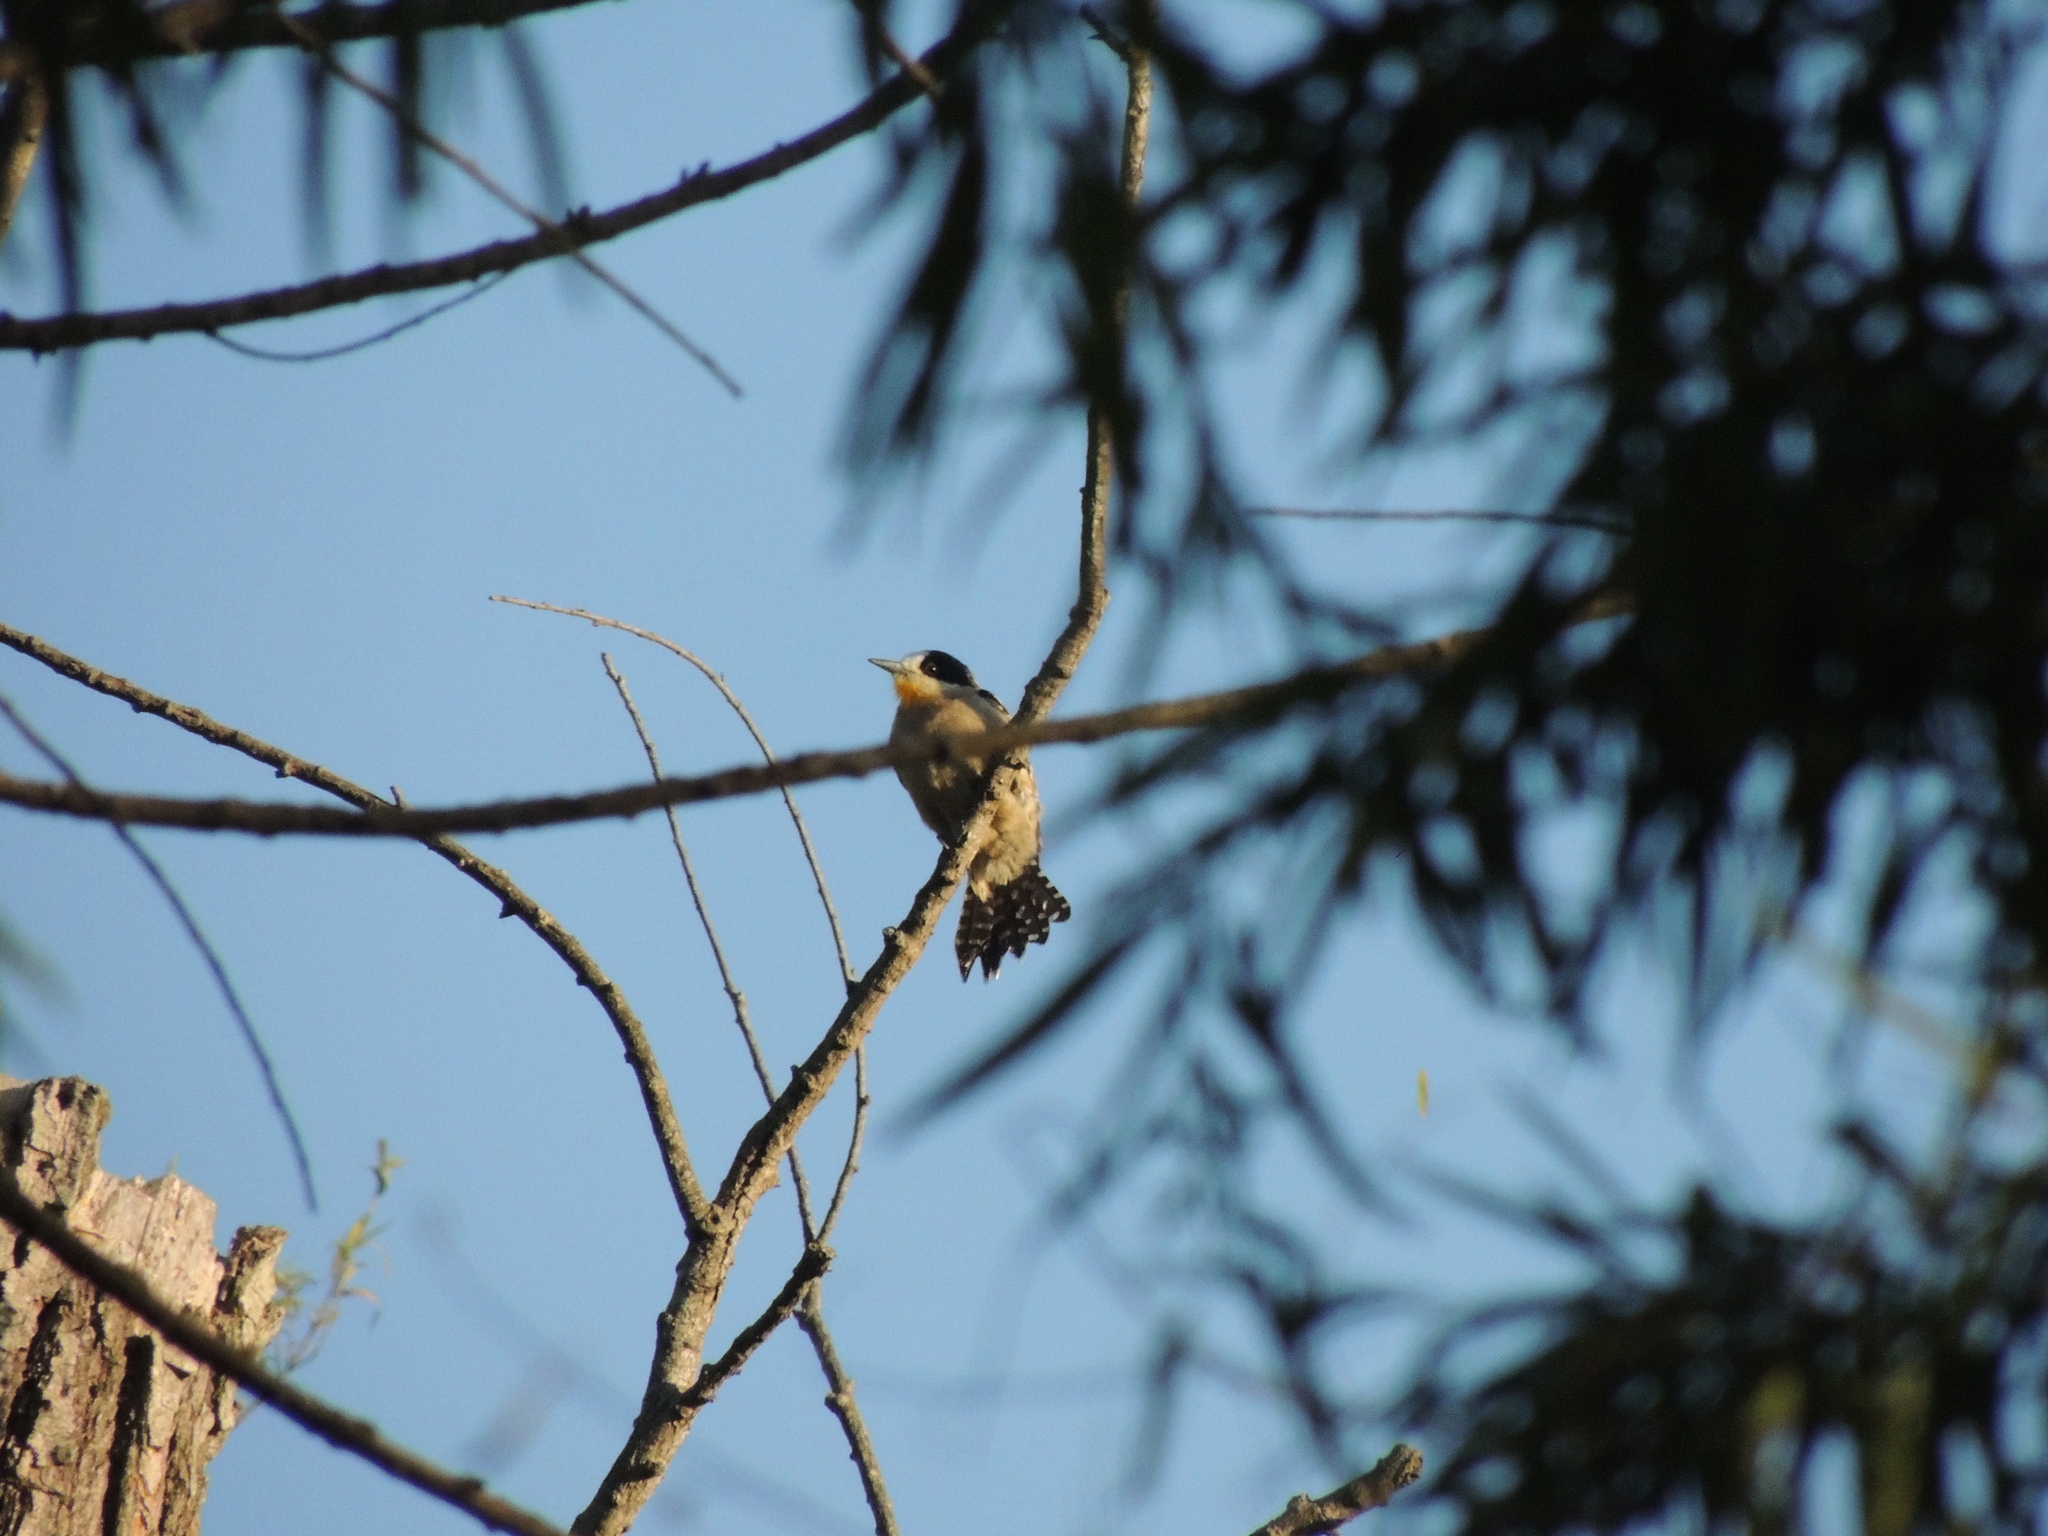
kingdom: Animalia
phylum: Chordata
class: Aves
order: Piciformes
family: Picidae
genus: Melanerpes
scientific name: Melanerpes cactorum
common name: White-fronted woodpecker
